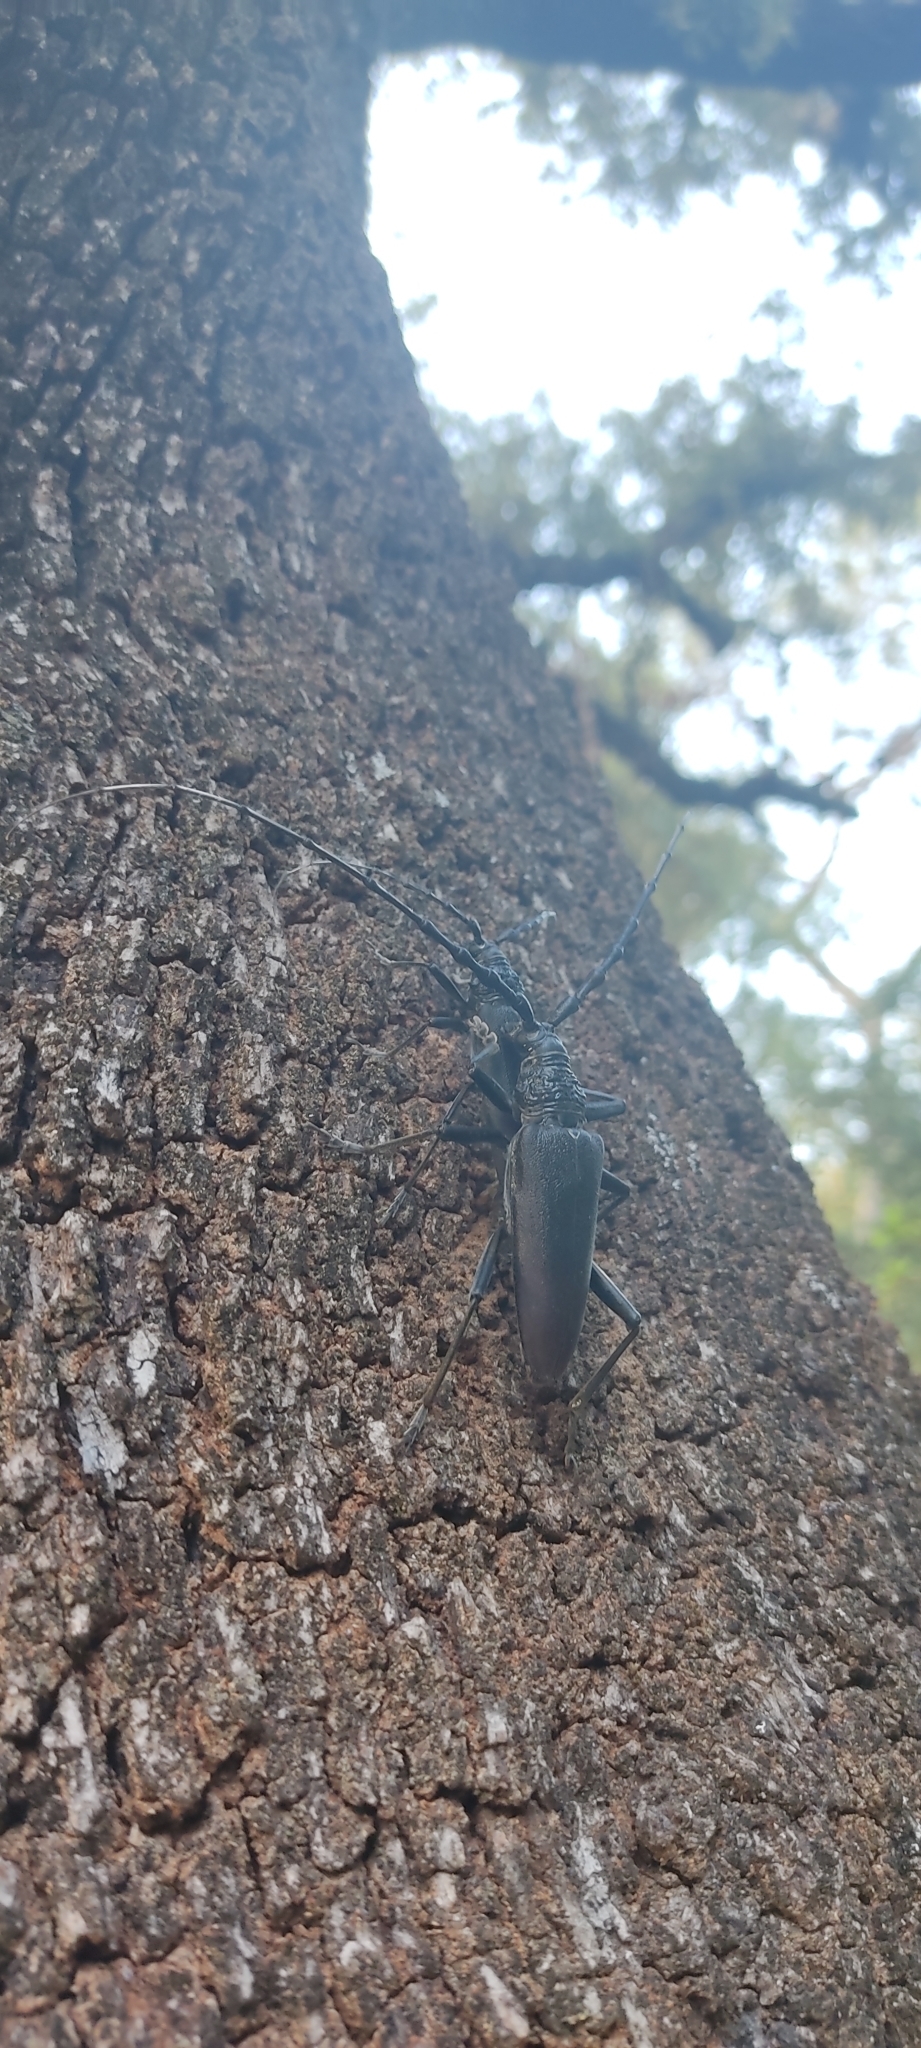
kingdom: Animalia
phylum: Arthropoda
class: Insecta
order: Coleoptera
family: Cerambycidae
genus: Cerambyx
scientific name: Cerambyx cerdo
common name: Cerambyx longicorn
